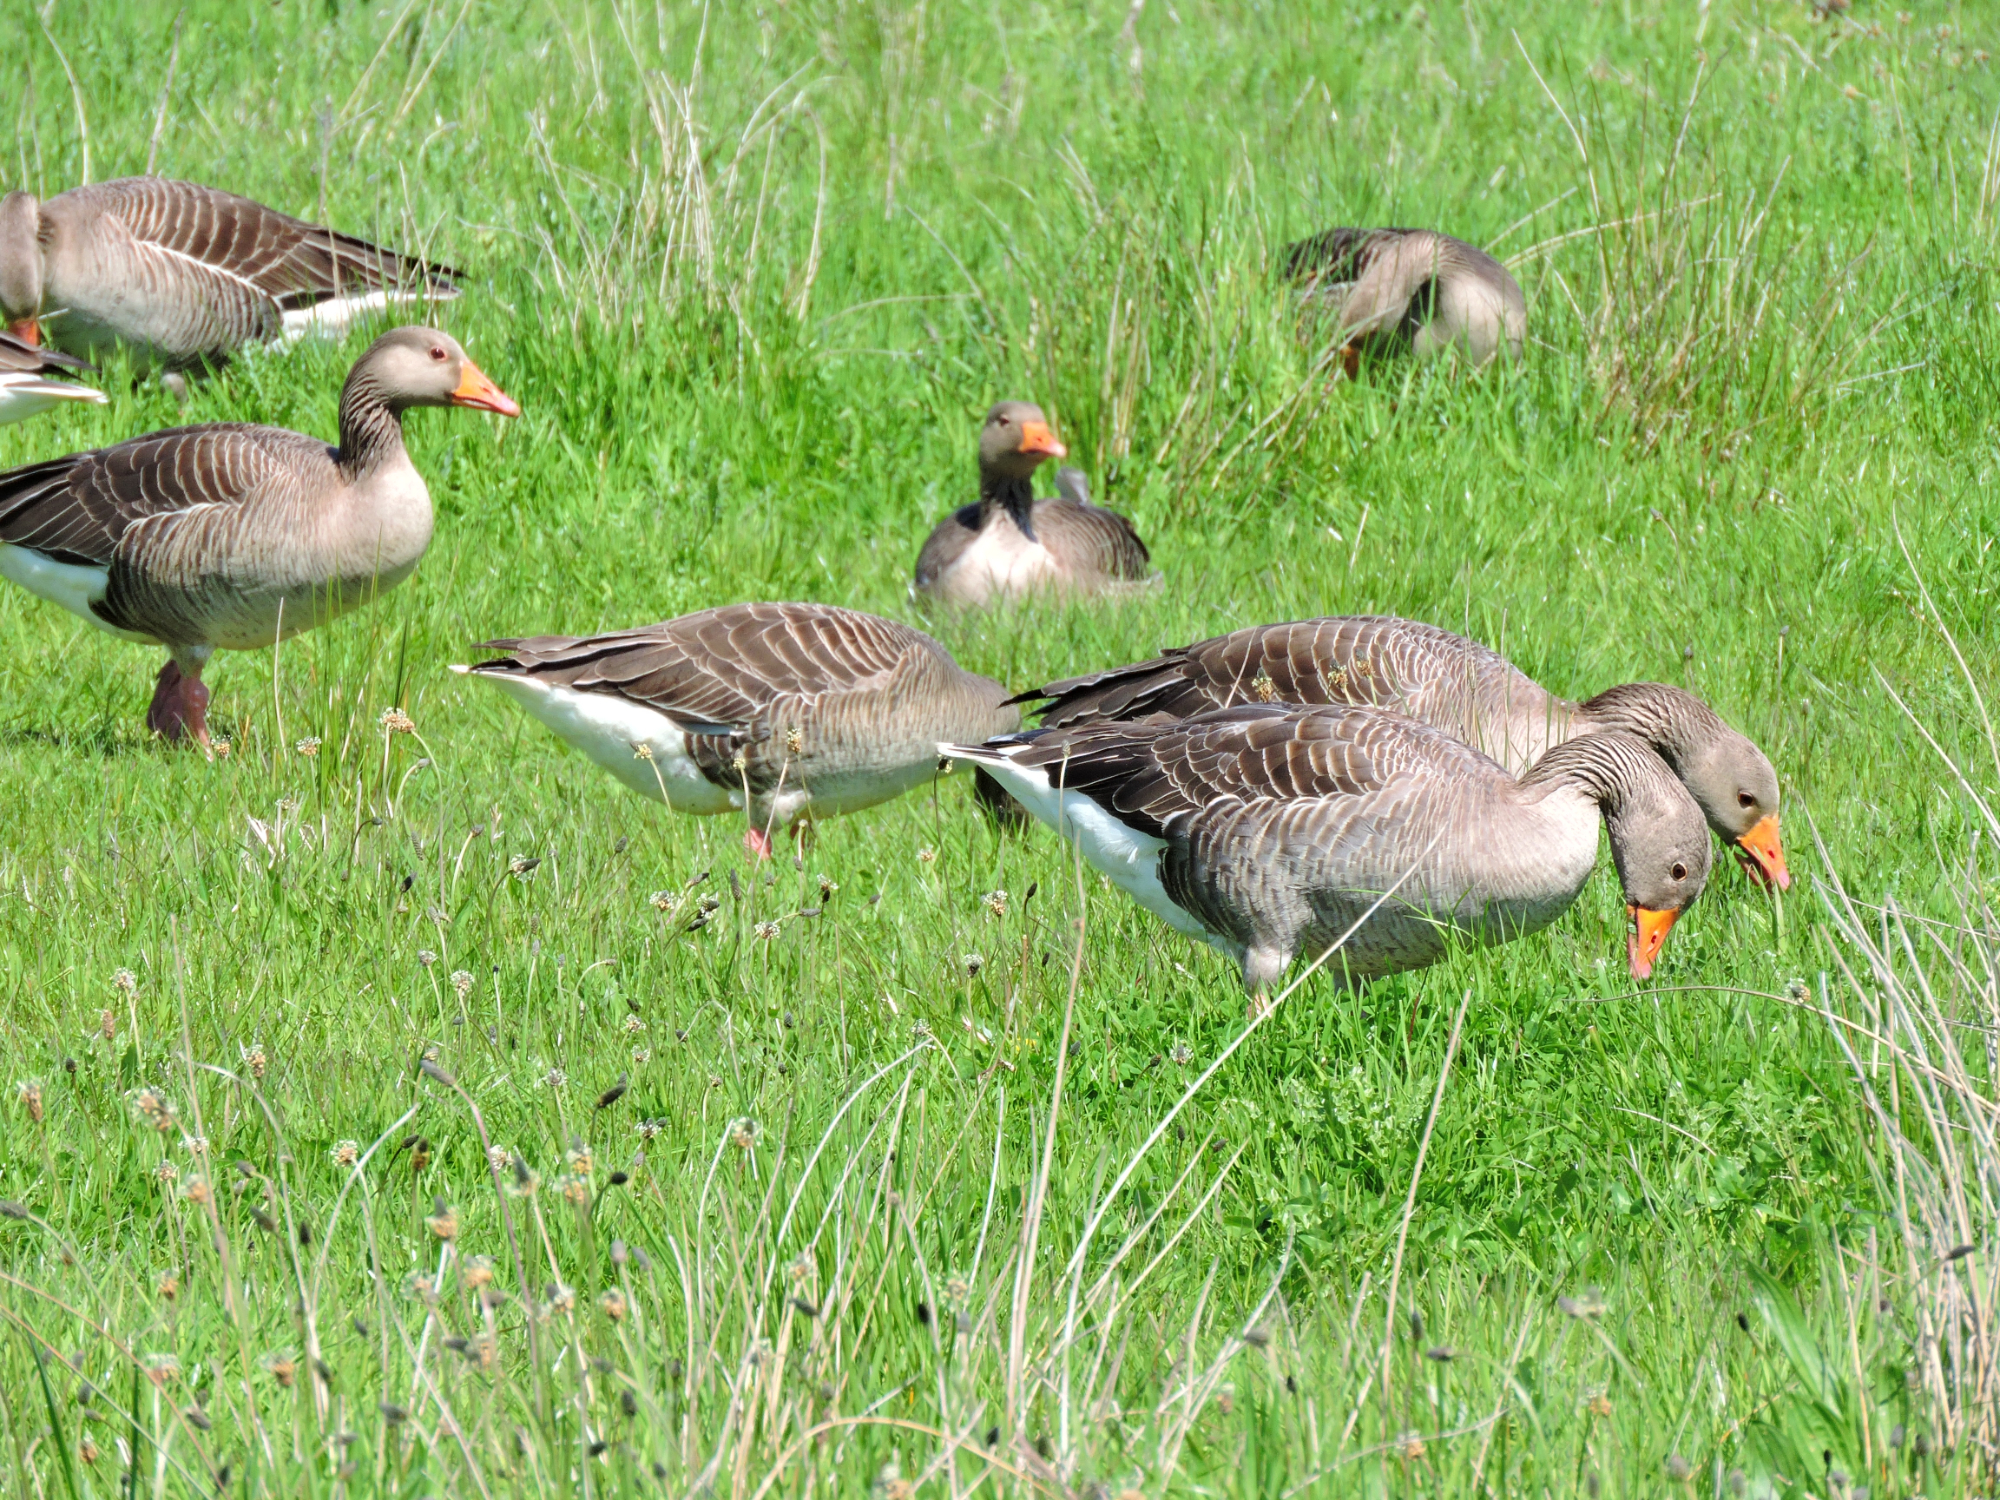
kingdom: Animalia
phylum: Chordata
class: Aves
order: Anseriformes
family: Anatidae
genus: Anser
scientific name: Anser anser
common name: Greylag goose
